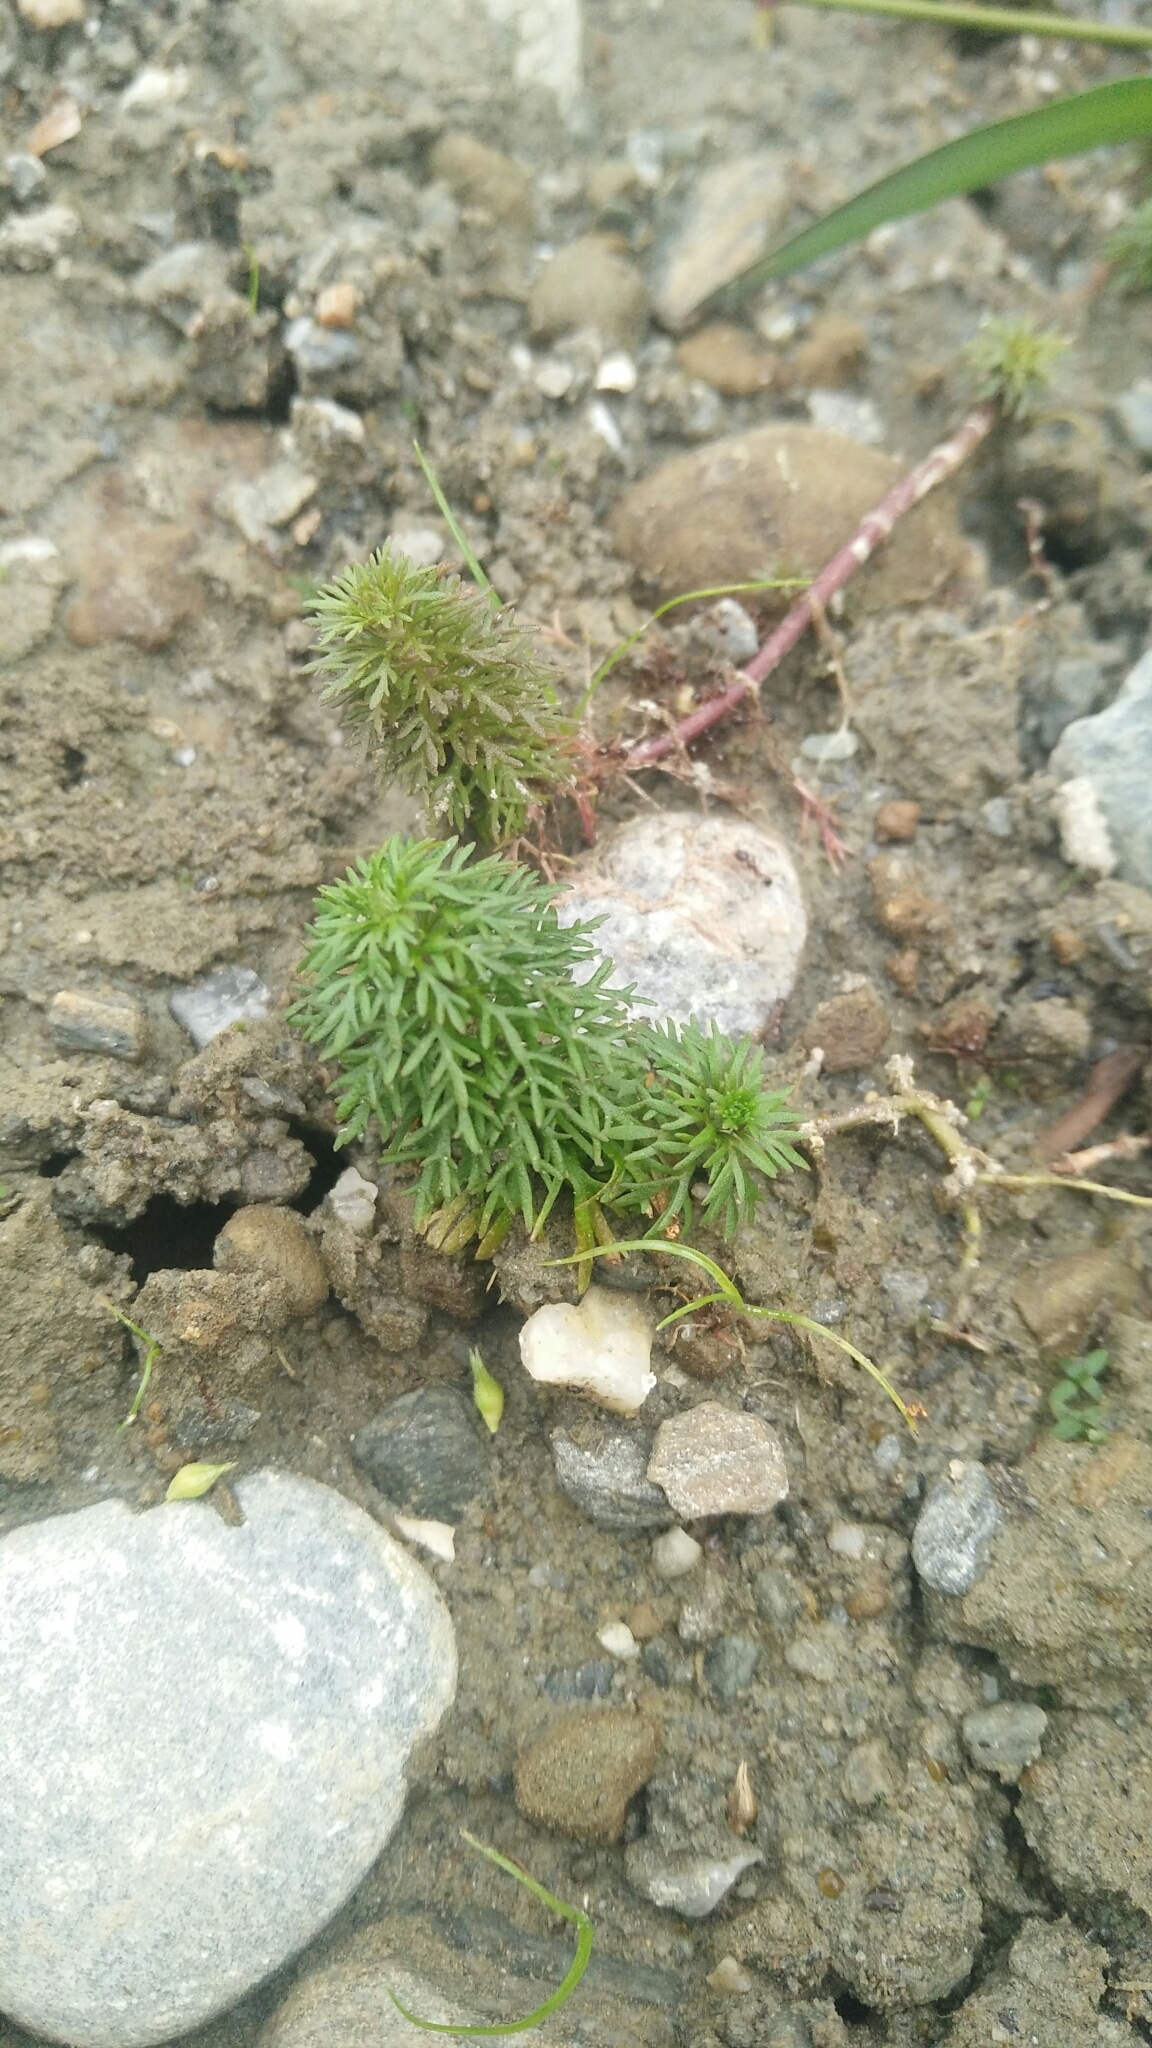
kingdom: Plantae
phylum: Tracheophyta
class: Magnoliopsida
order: Lamiales
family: Plantaginaceae
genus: Limnophila
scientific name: Limnophila indica
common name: Indian marshweed
